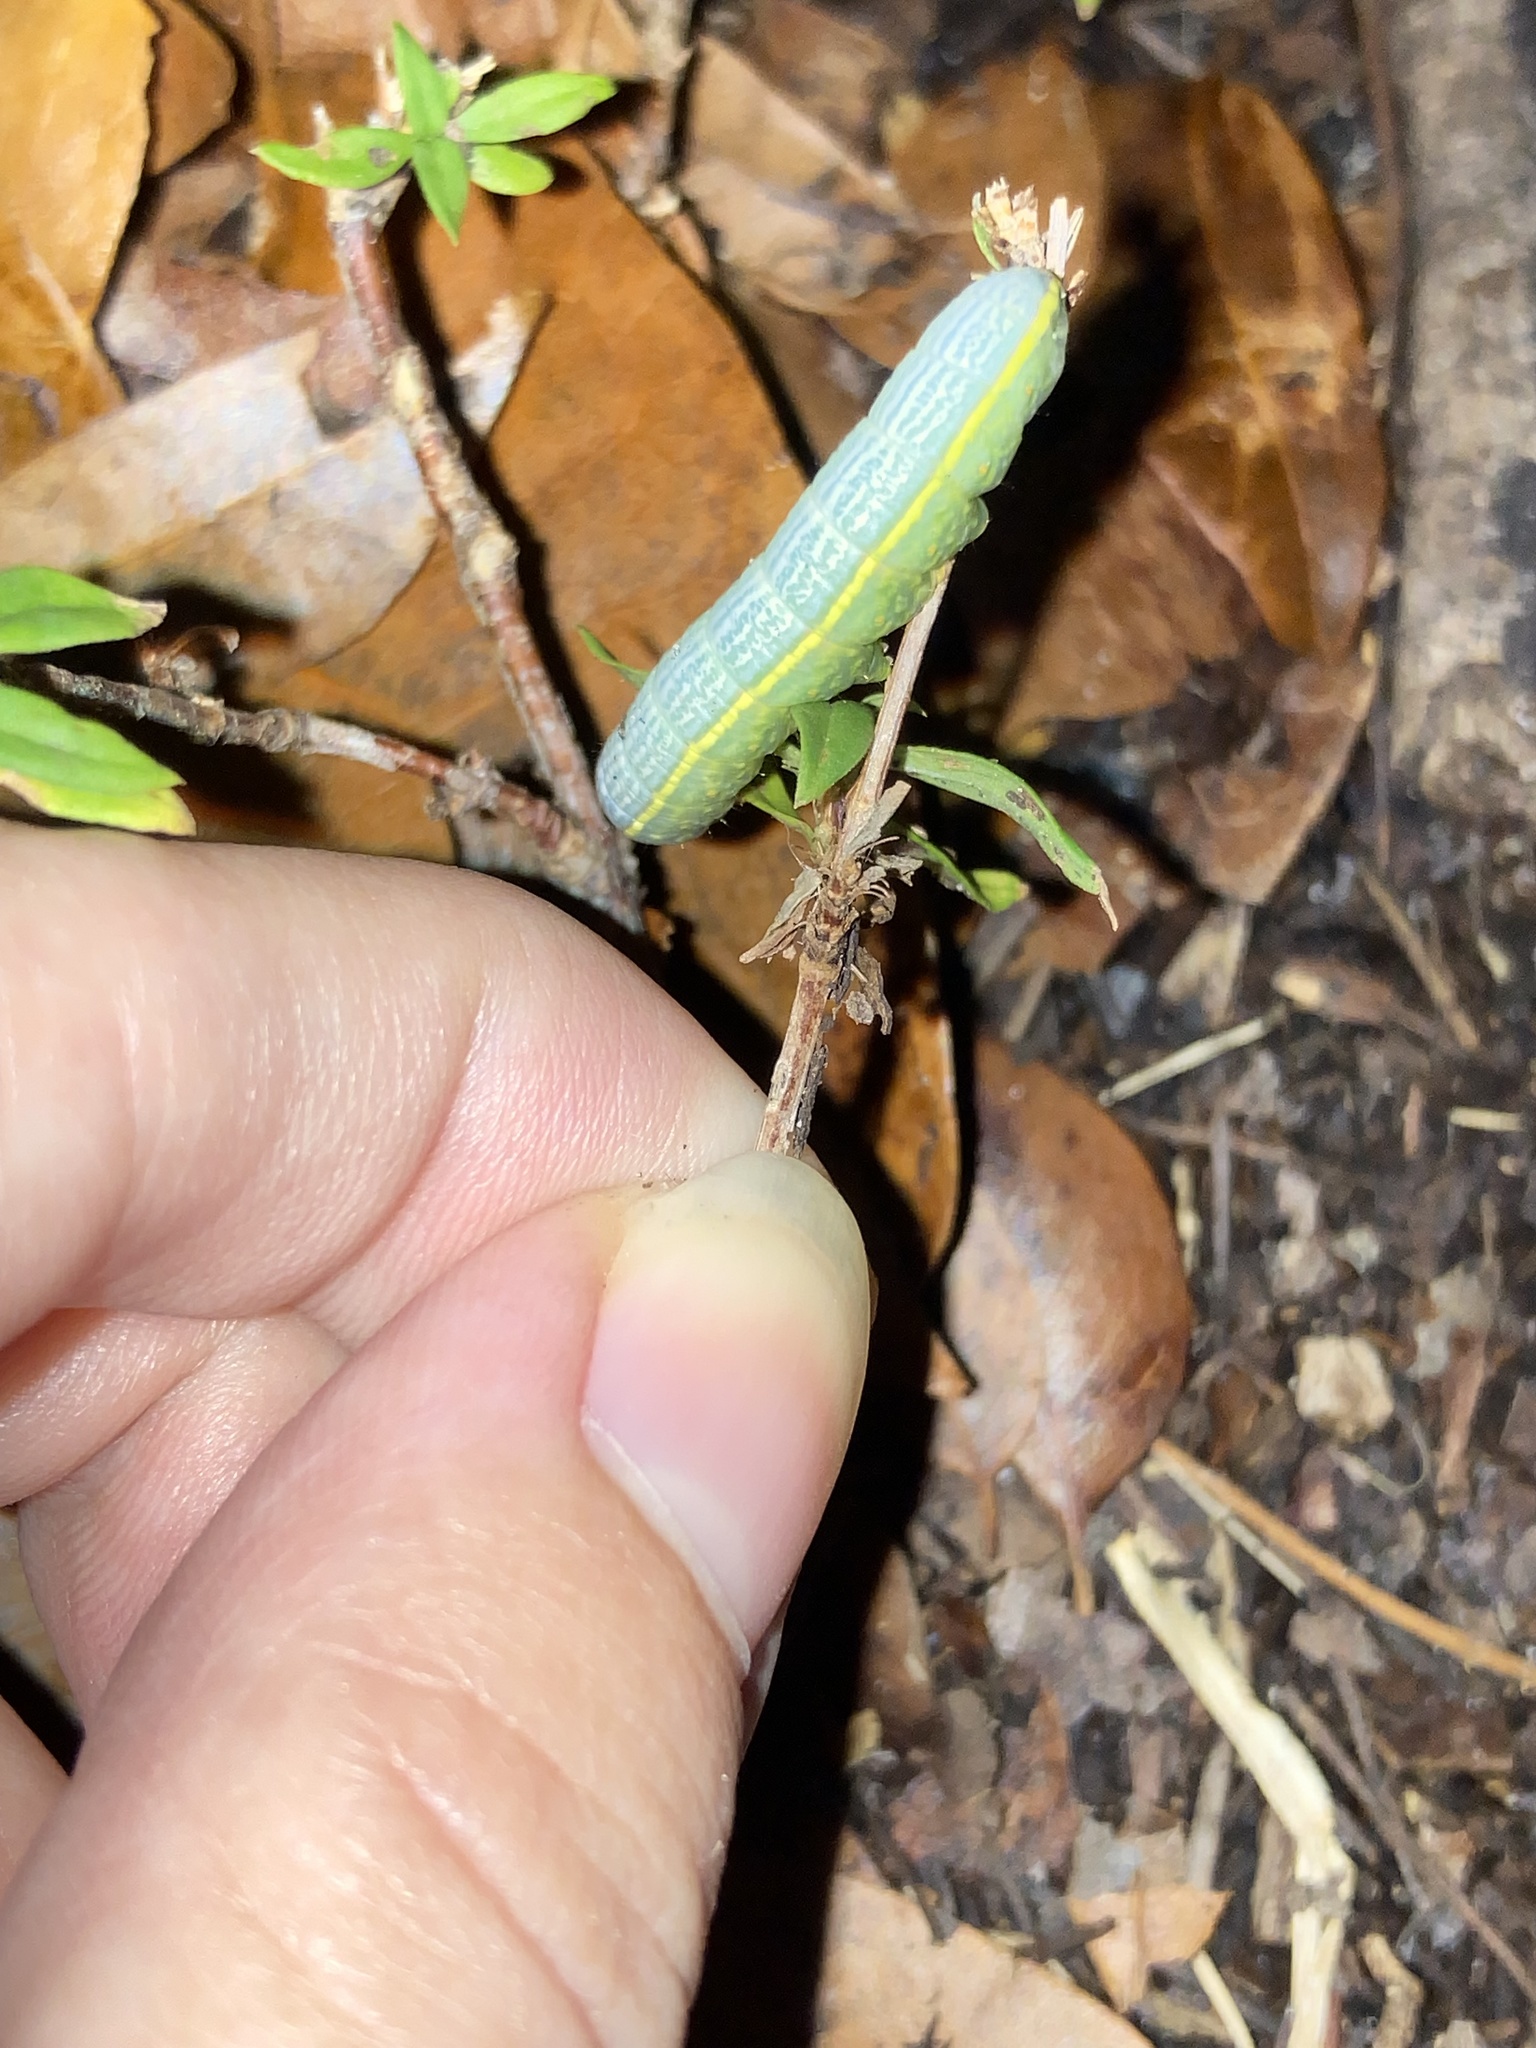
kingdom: Animalia
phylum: Arthropoda
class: Insecta
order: Coleoptera
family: Cerambycidae
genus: Styloleptus
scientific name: Styloleptus
